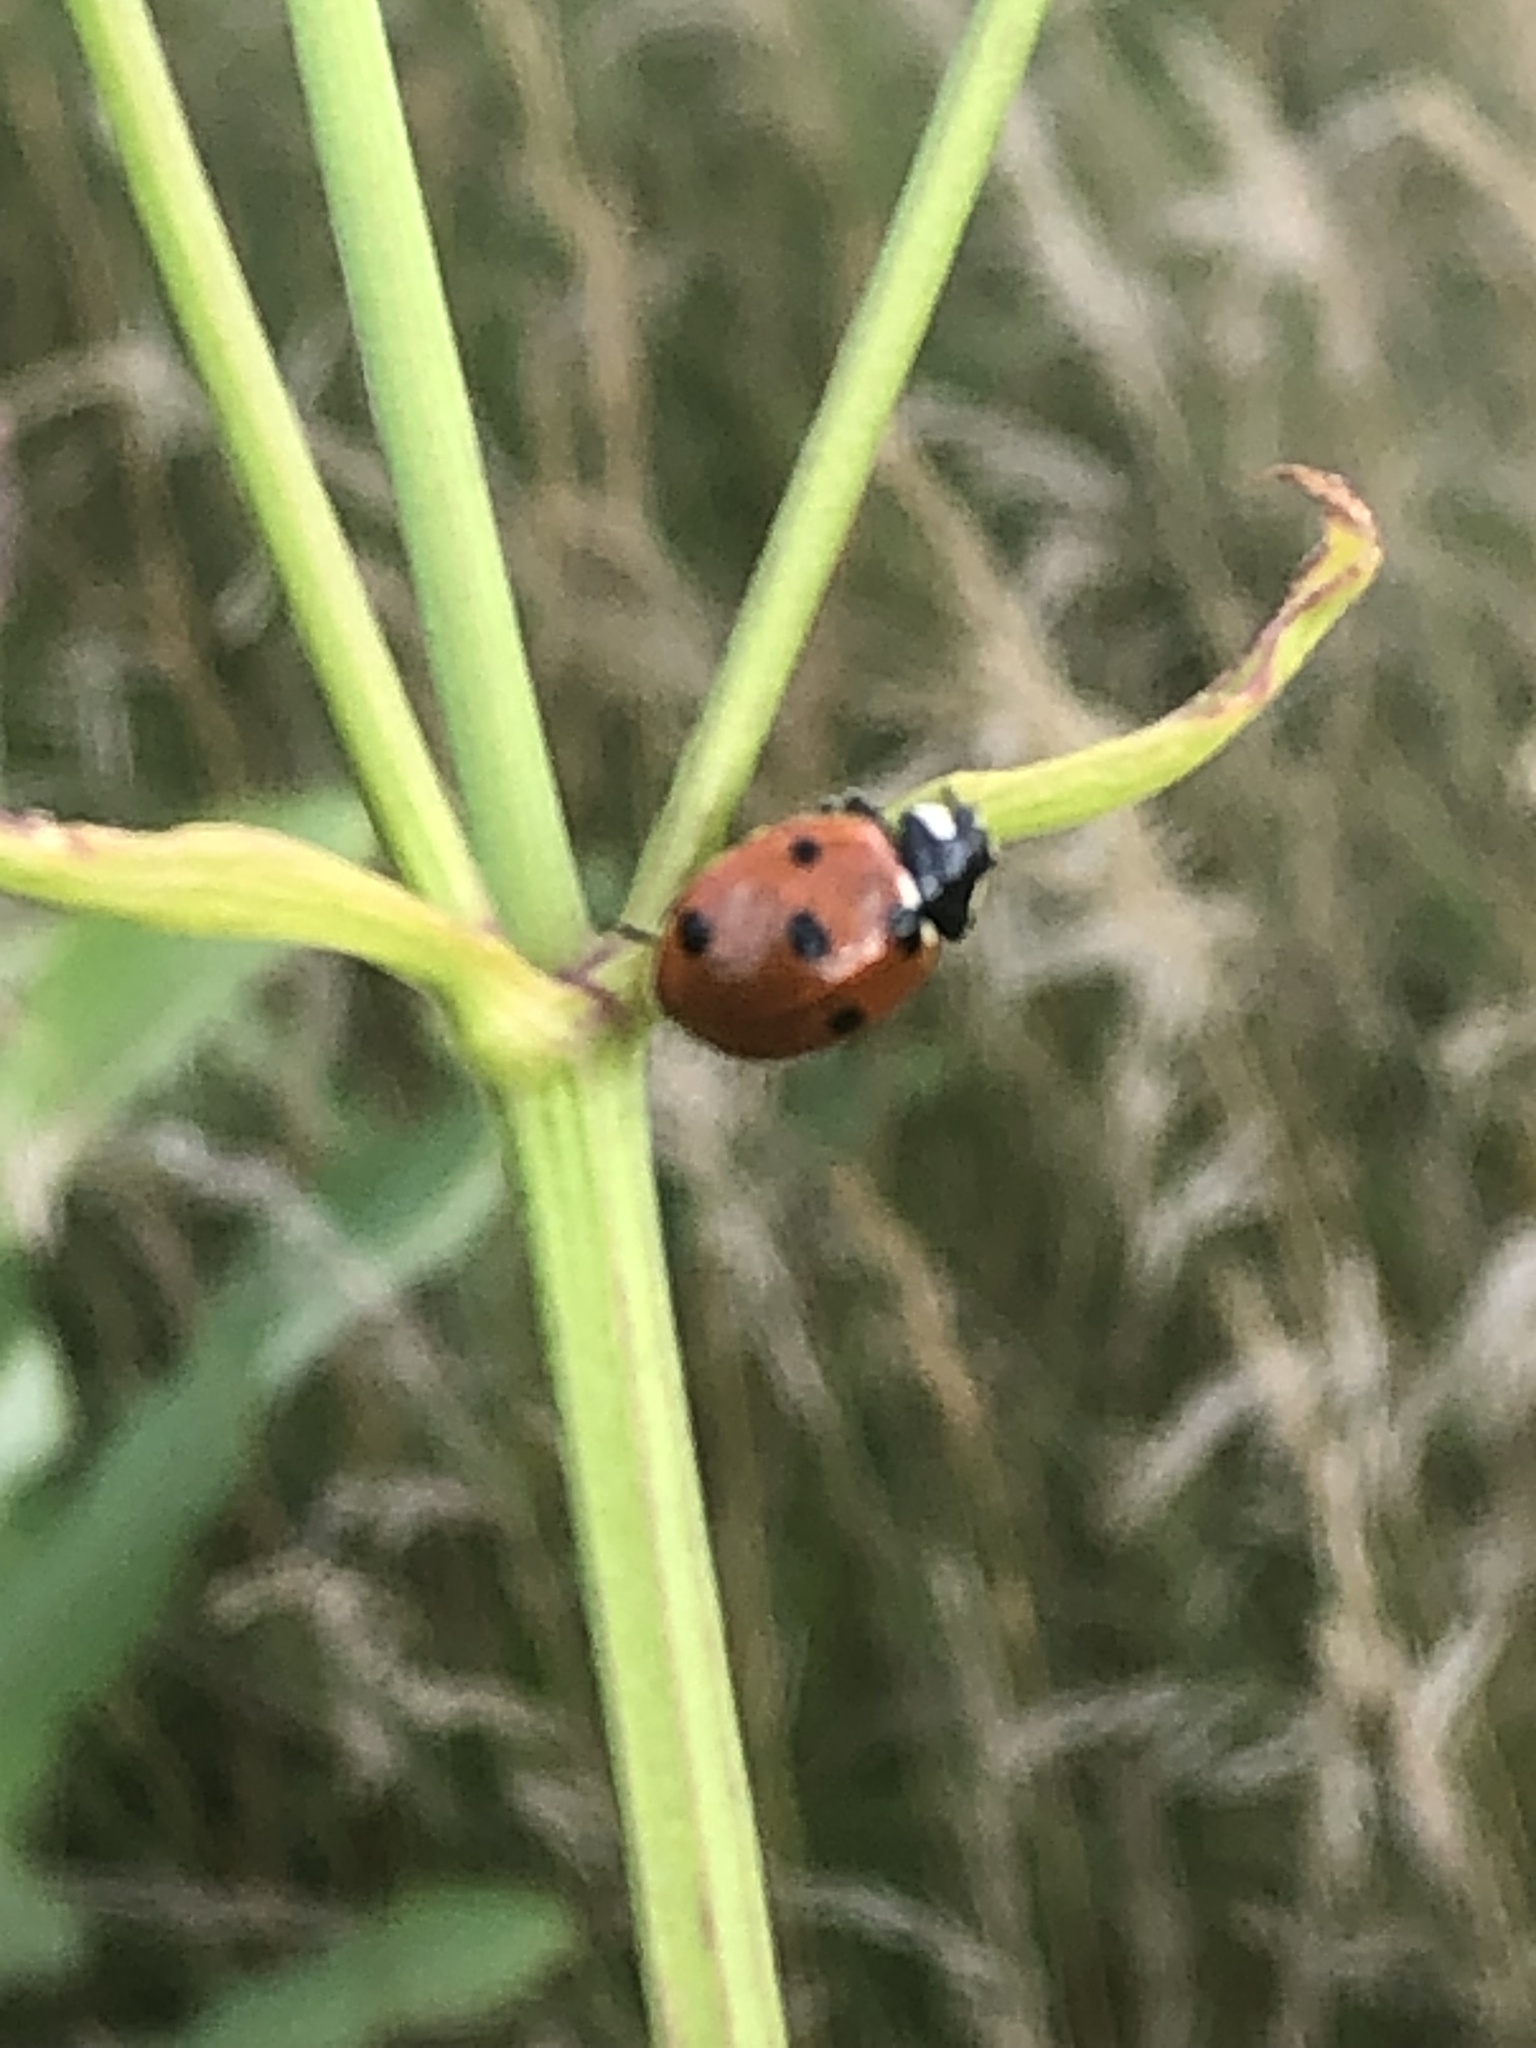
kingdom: Animalia
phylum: Arthropoda
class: Insecta
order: Coleoptera
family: Coccinellidae
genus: Coccinella
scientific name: Coccinella septempunctata
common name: Sevenspotted lady beetle
